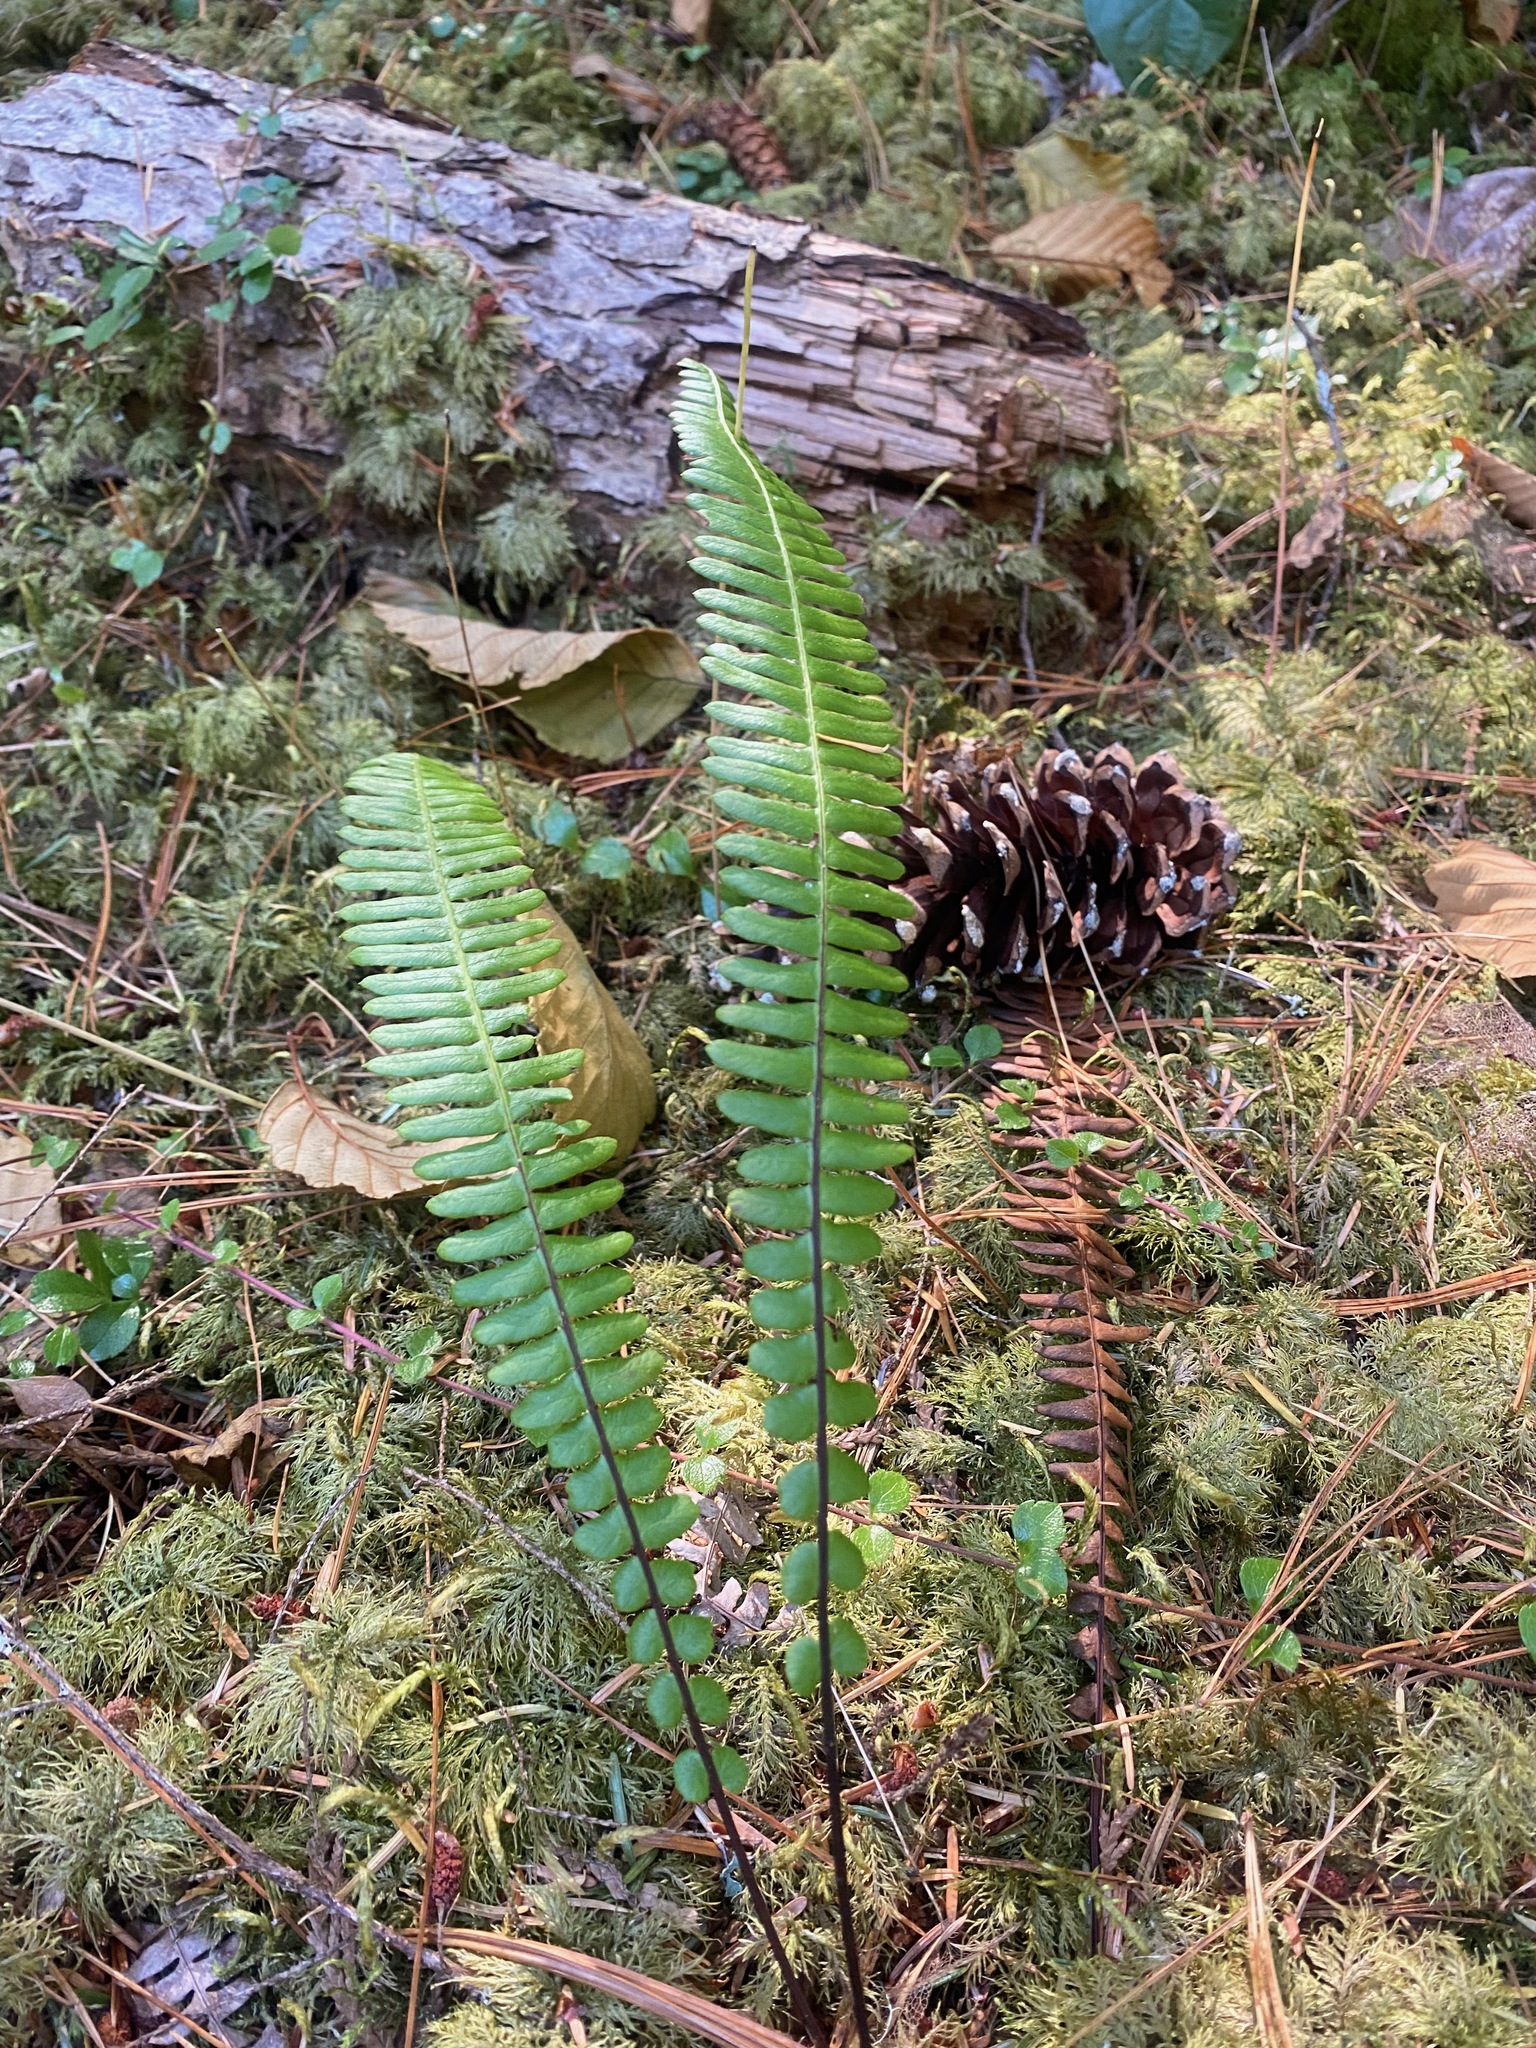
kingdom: Plantae
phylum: Tracheophyta
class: Polypodiopsida
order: Polypodiales
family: Blechnaceae
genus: Struthiopteris
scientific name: Struthiopteris spicant
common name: Deer fern
